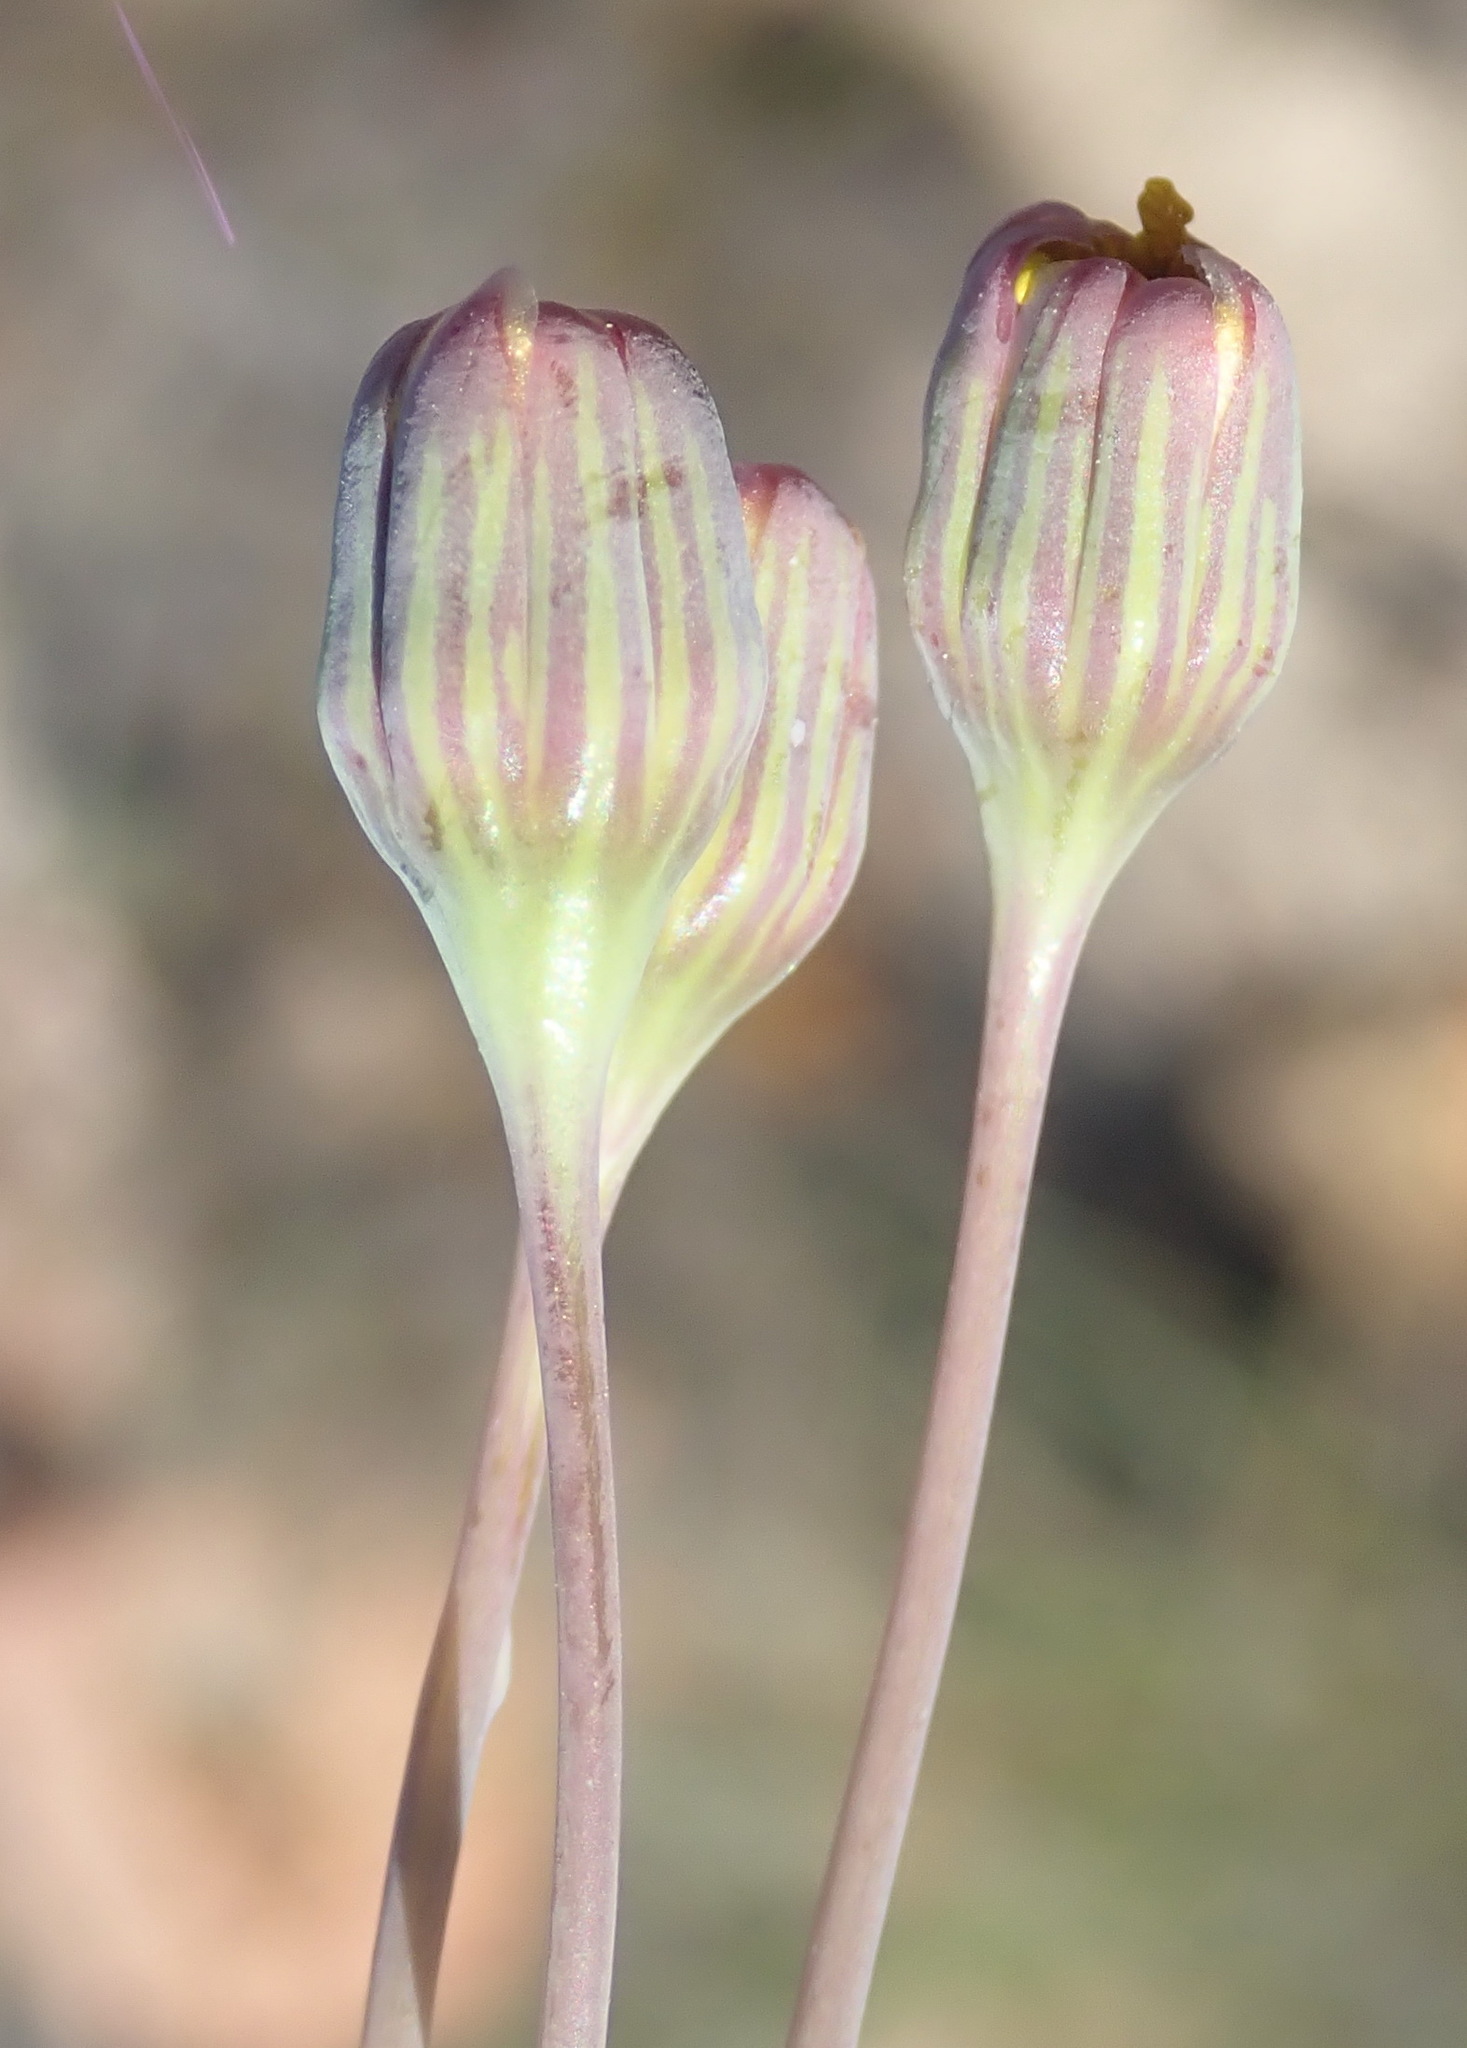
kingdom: Plantae
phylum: Tracheophyta
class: Magnoliopsida
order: Asterales
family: Asteraceae
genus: Crassothonna
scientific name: Crassothonna cacalioides
